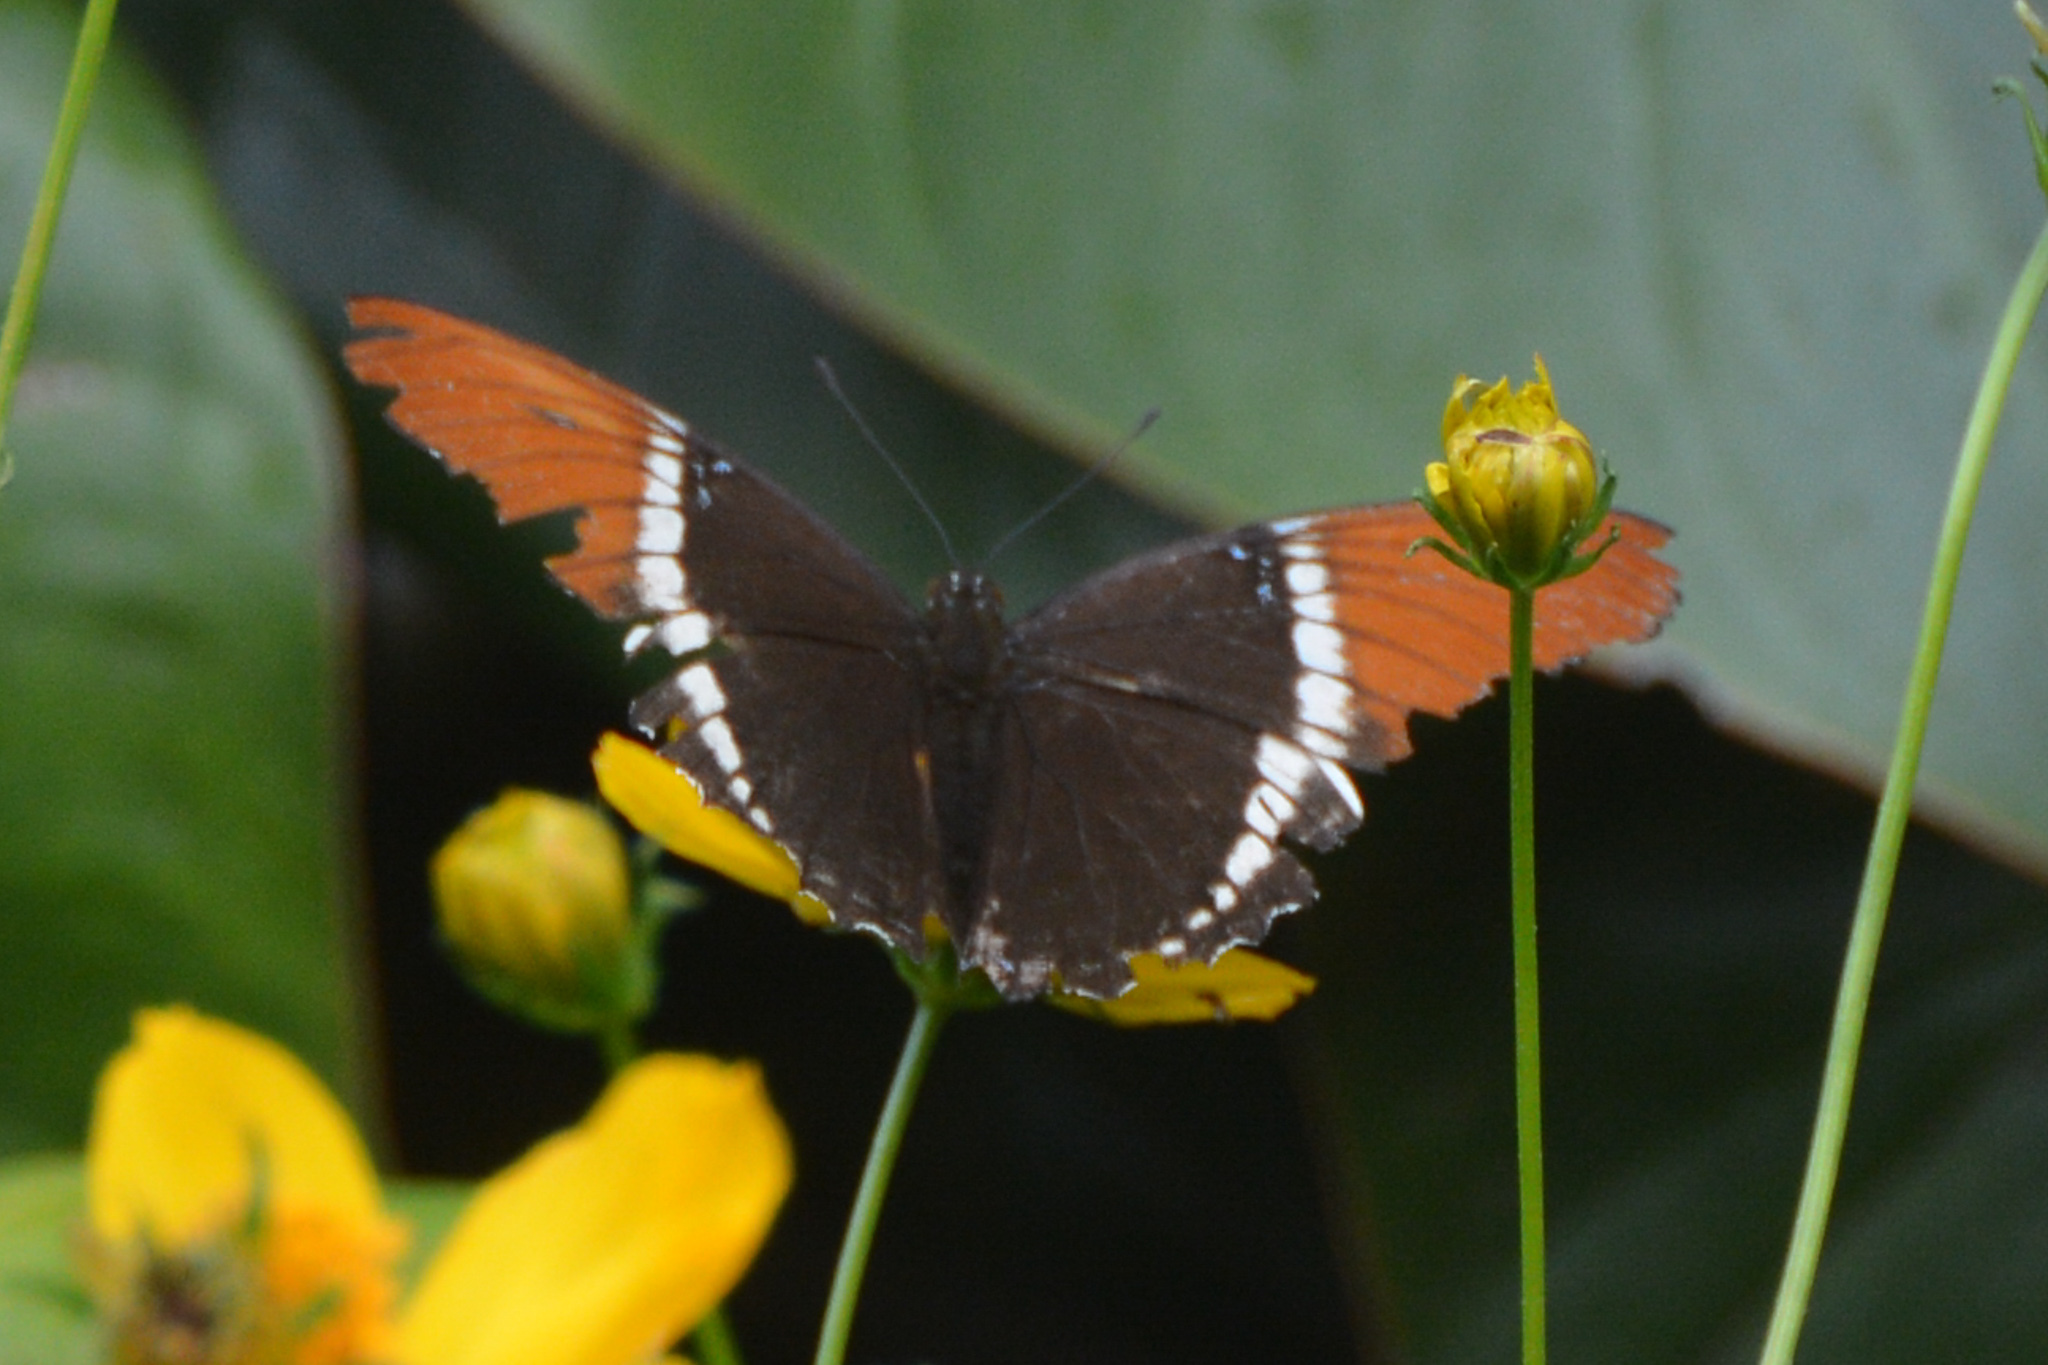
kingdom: Animalia
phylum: Arthropoda
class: Insecta
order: Lepidoptera
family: Nymphalidae
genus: Siproeta
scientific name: Siproeta epaphus
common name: Rusty-tipped page
